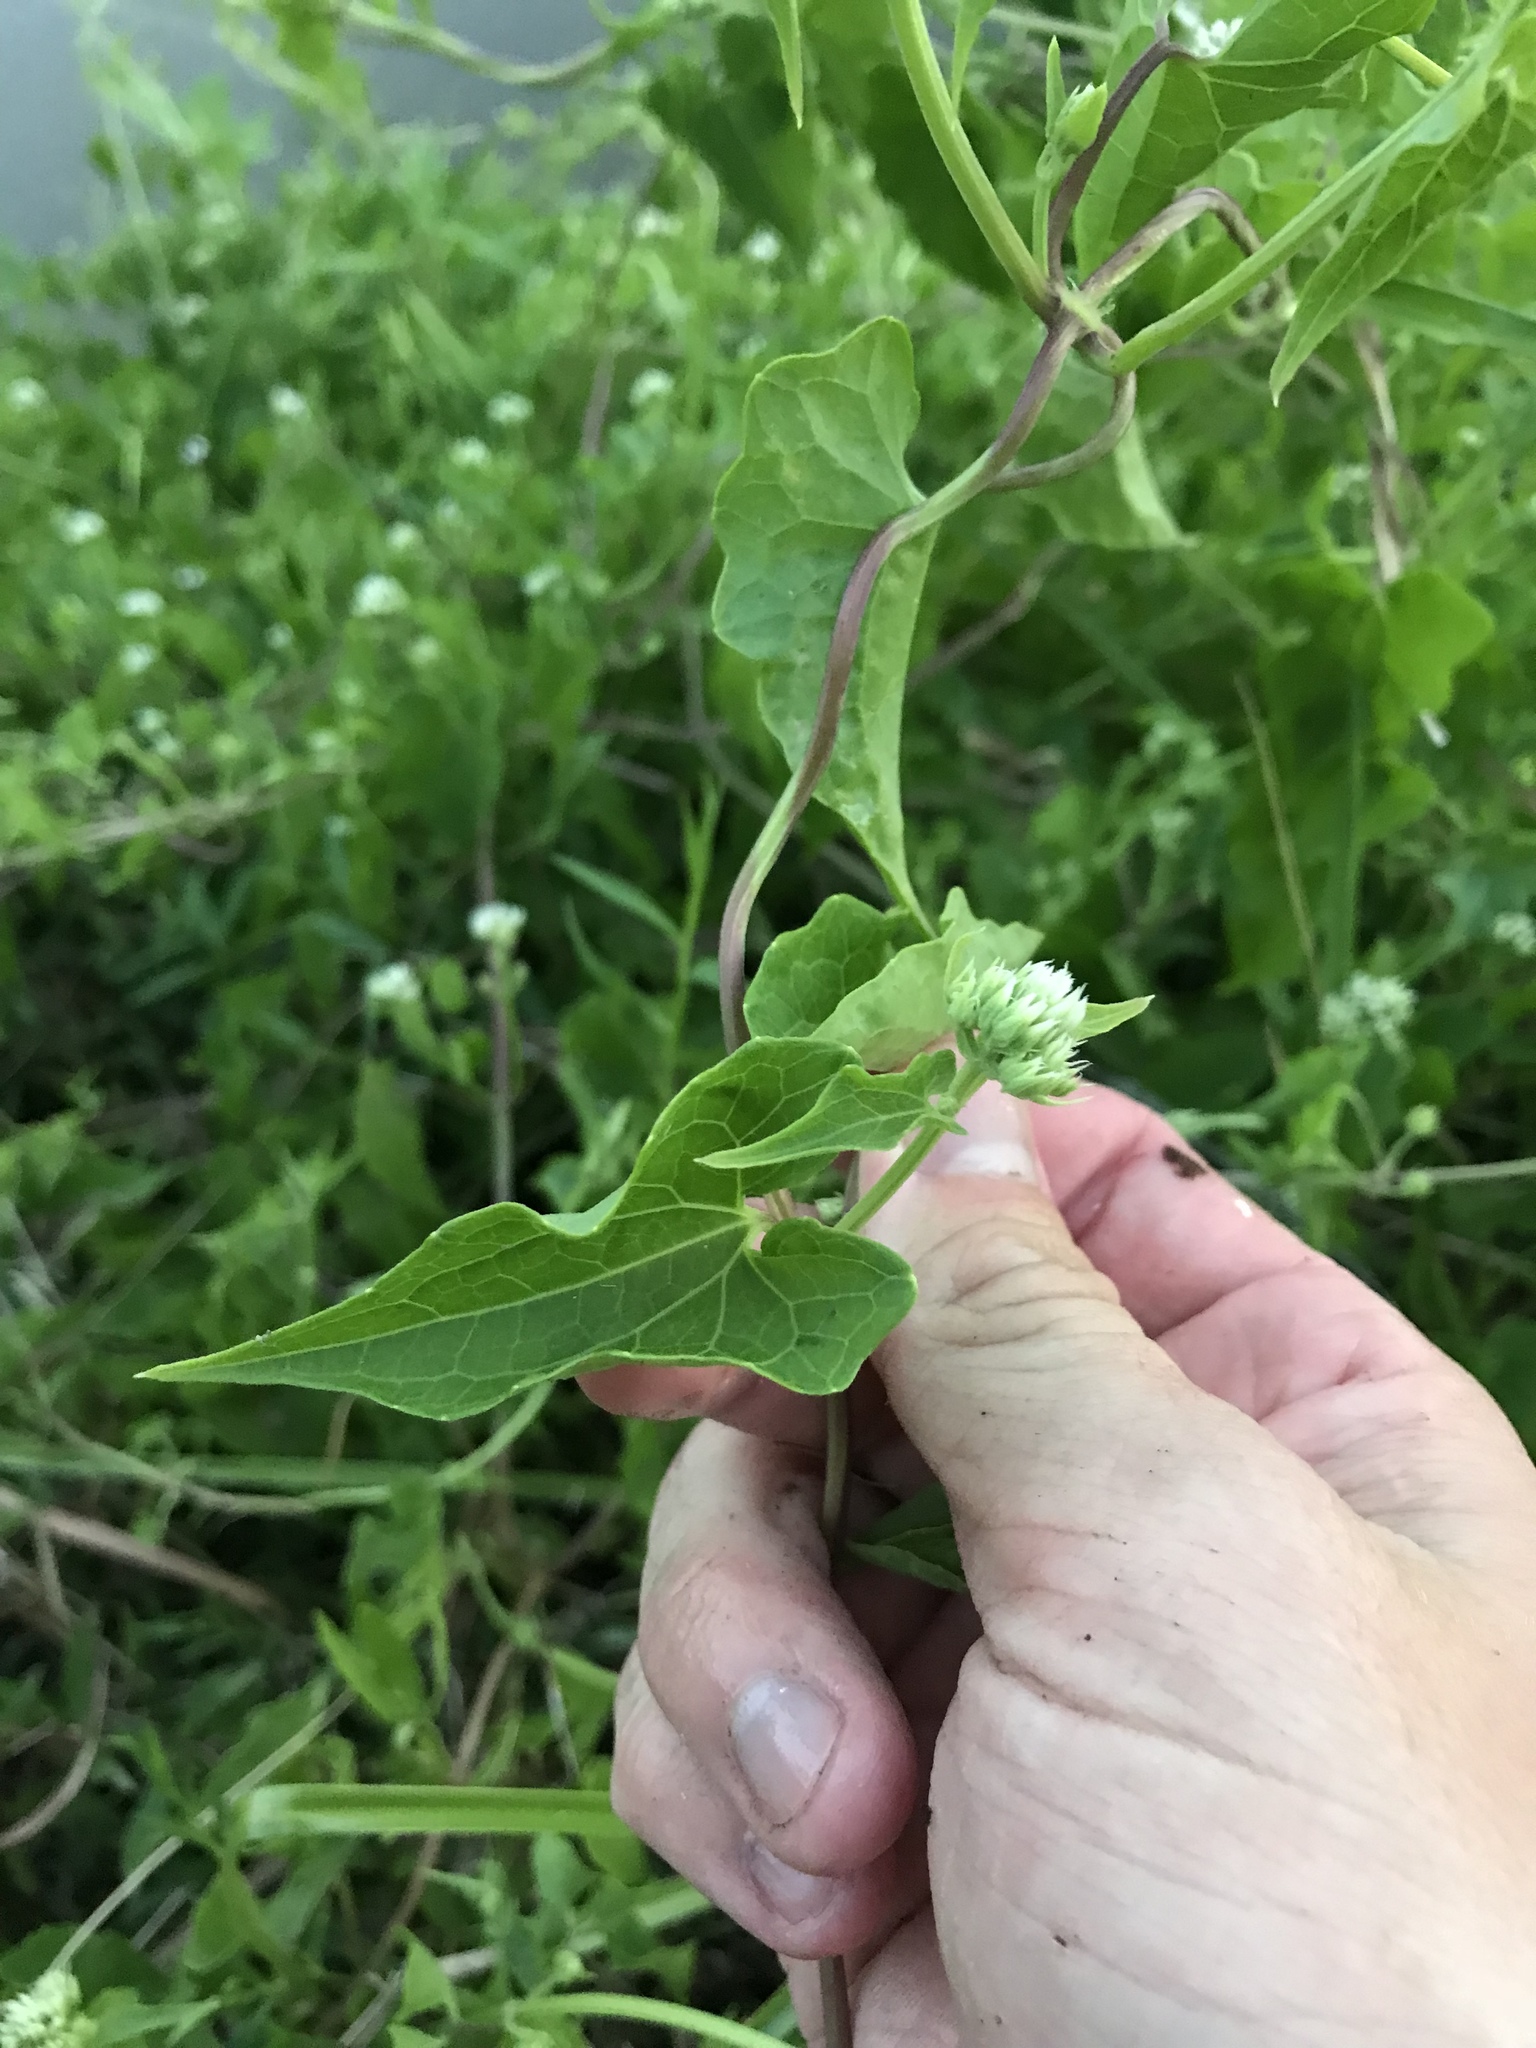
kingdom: Plantae
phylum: Tracheophyta
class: Magnoliopsida
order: Asterales
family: Asteraceae
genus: Mikania
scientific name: Mikania scandens
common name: Climbing hempvine
